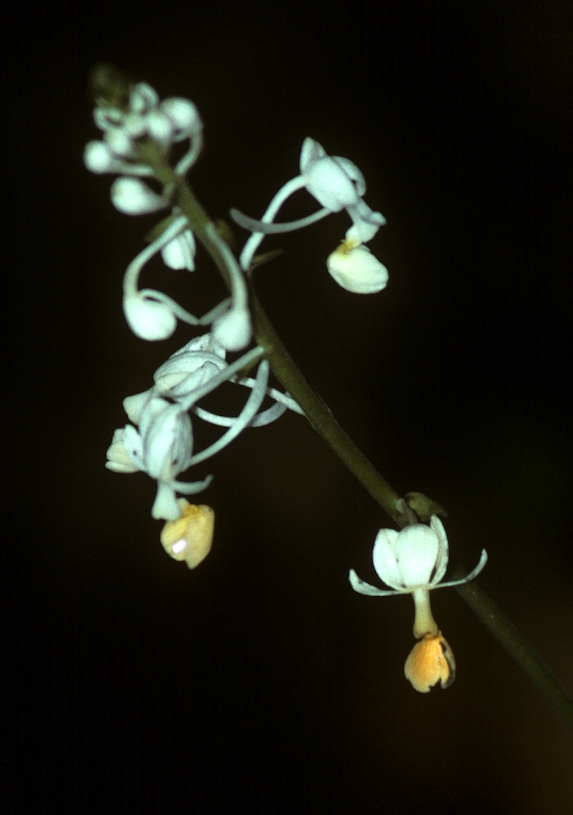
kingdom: Plantae
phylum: Tracheophyta
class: Liliopsida
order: Asparagales
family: Orchidaceae
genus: Calanthe
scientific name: Calanthe zollingeri
